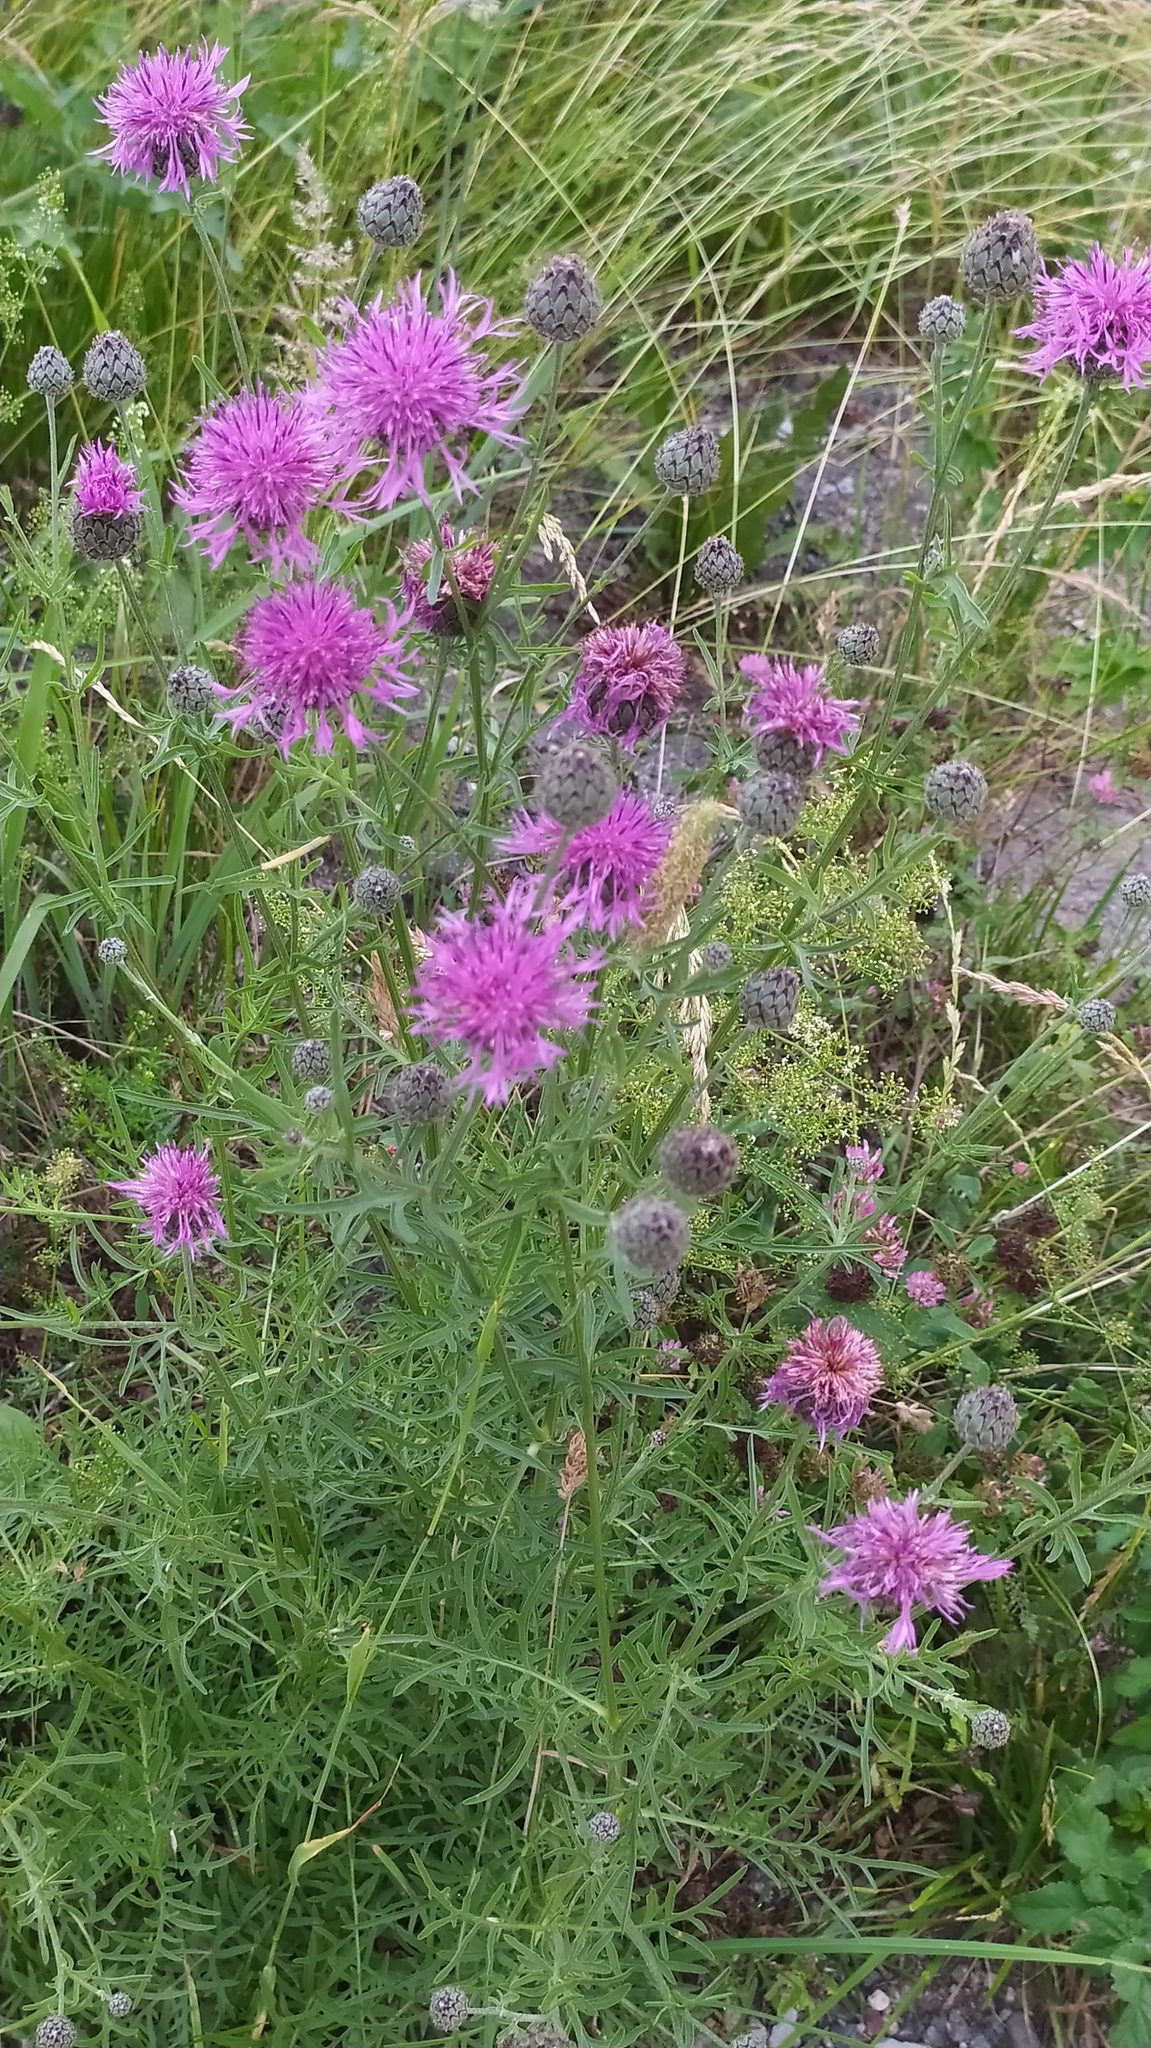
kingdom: Plantae
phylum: Tracheophyta
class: Magnoliopsida
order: Asterales
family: Asteraceae
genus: Centaurea
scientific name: Centaurea scabiosa
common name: Greater knapweed
